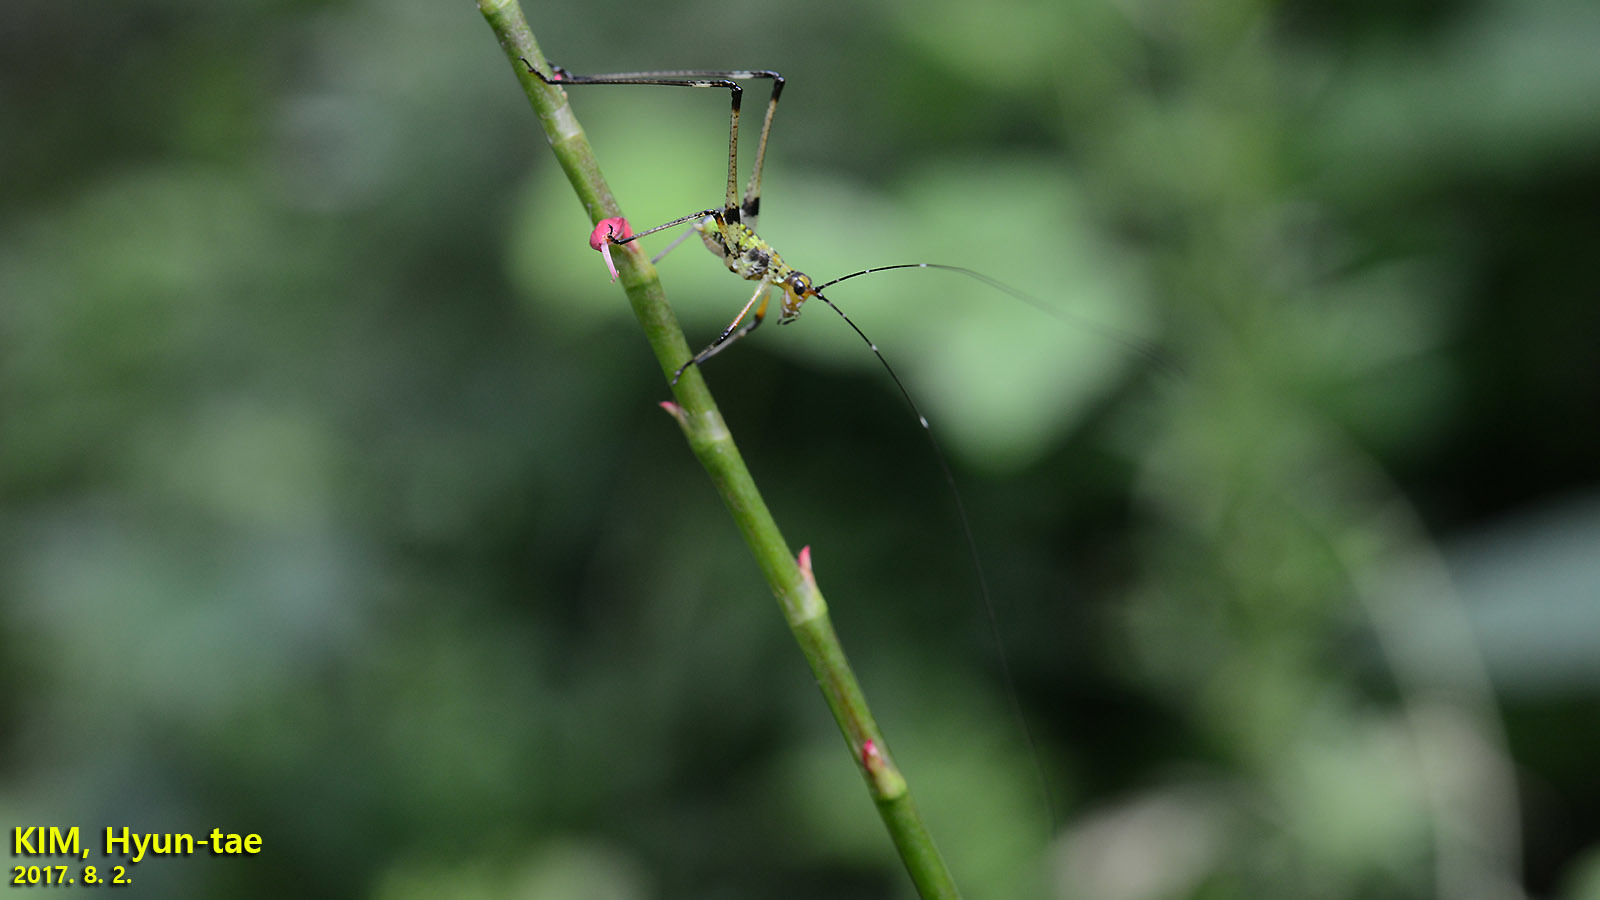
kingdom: Animalia
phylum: Arthropoda
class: Insecta
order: Orthoptera
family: Tettigoniidae
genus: Phaneroptera
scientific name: Phaneroptera nigroantennata
